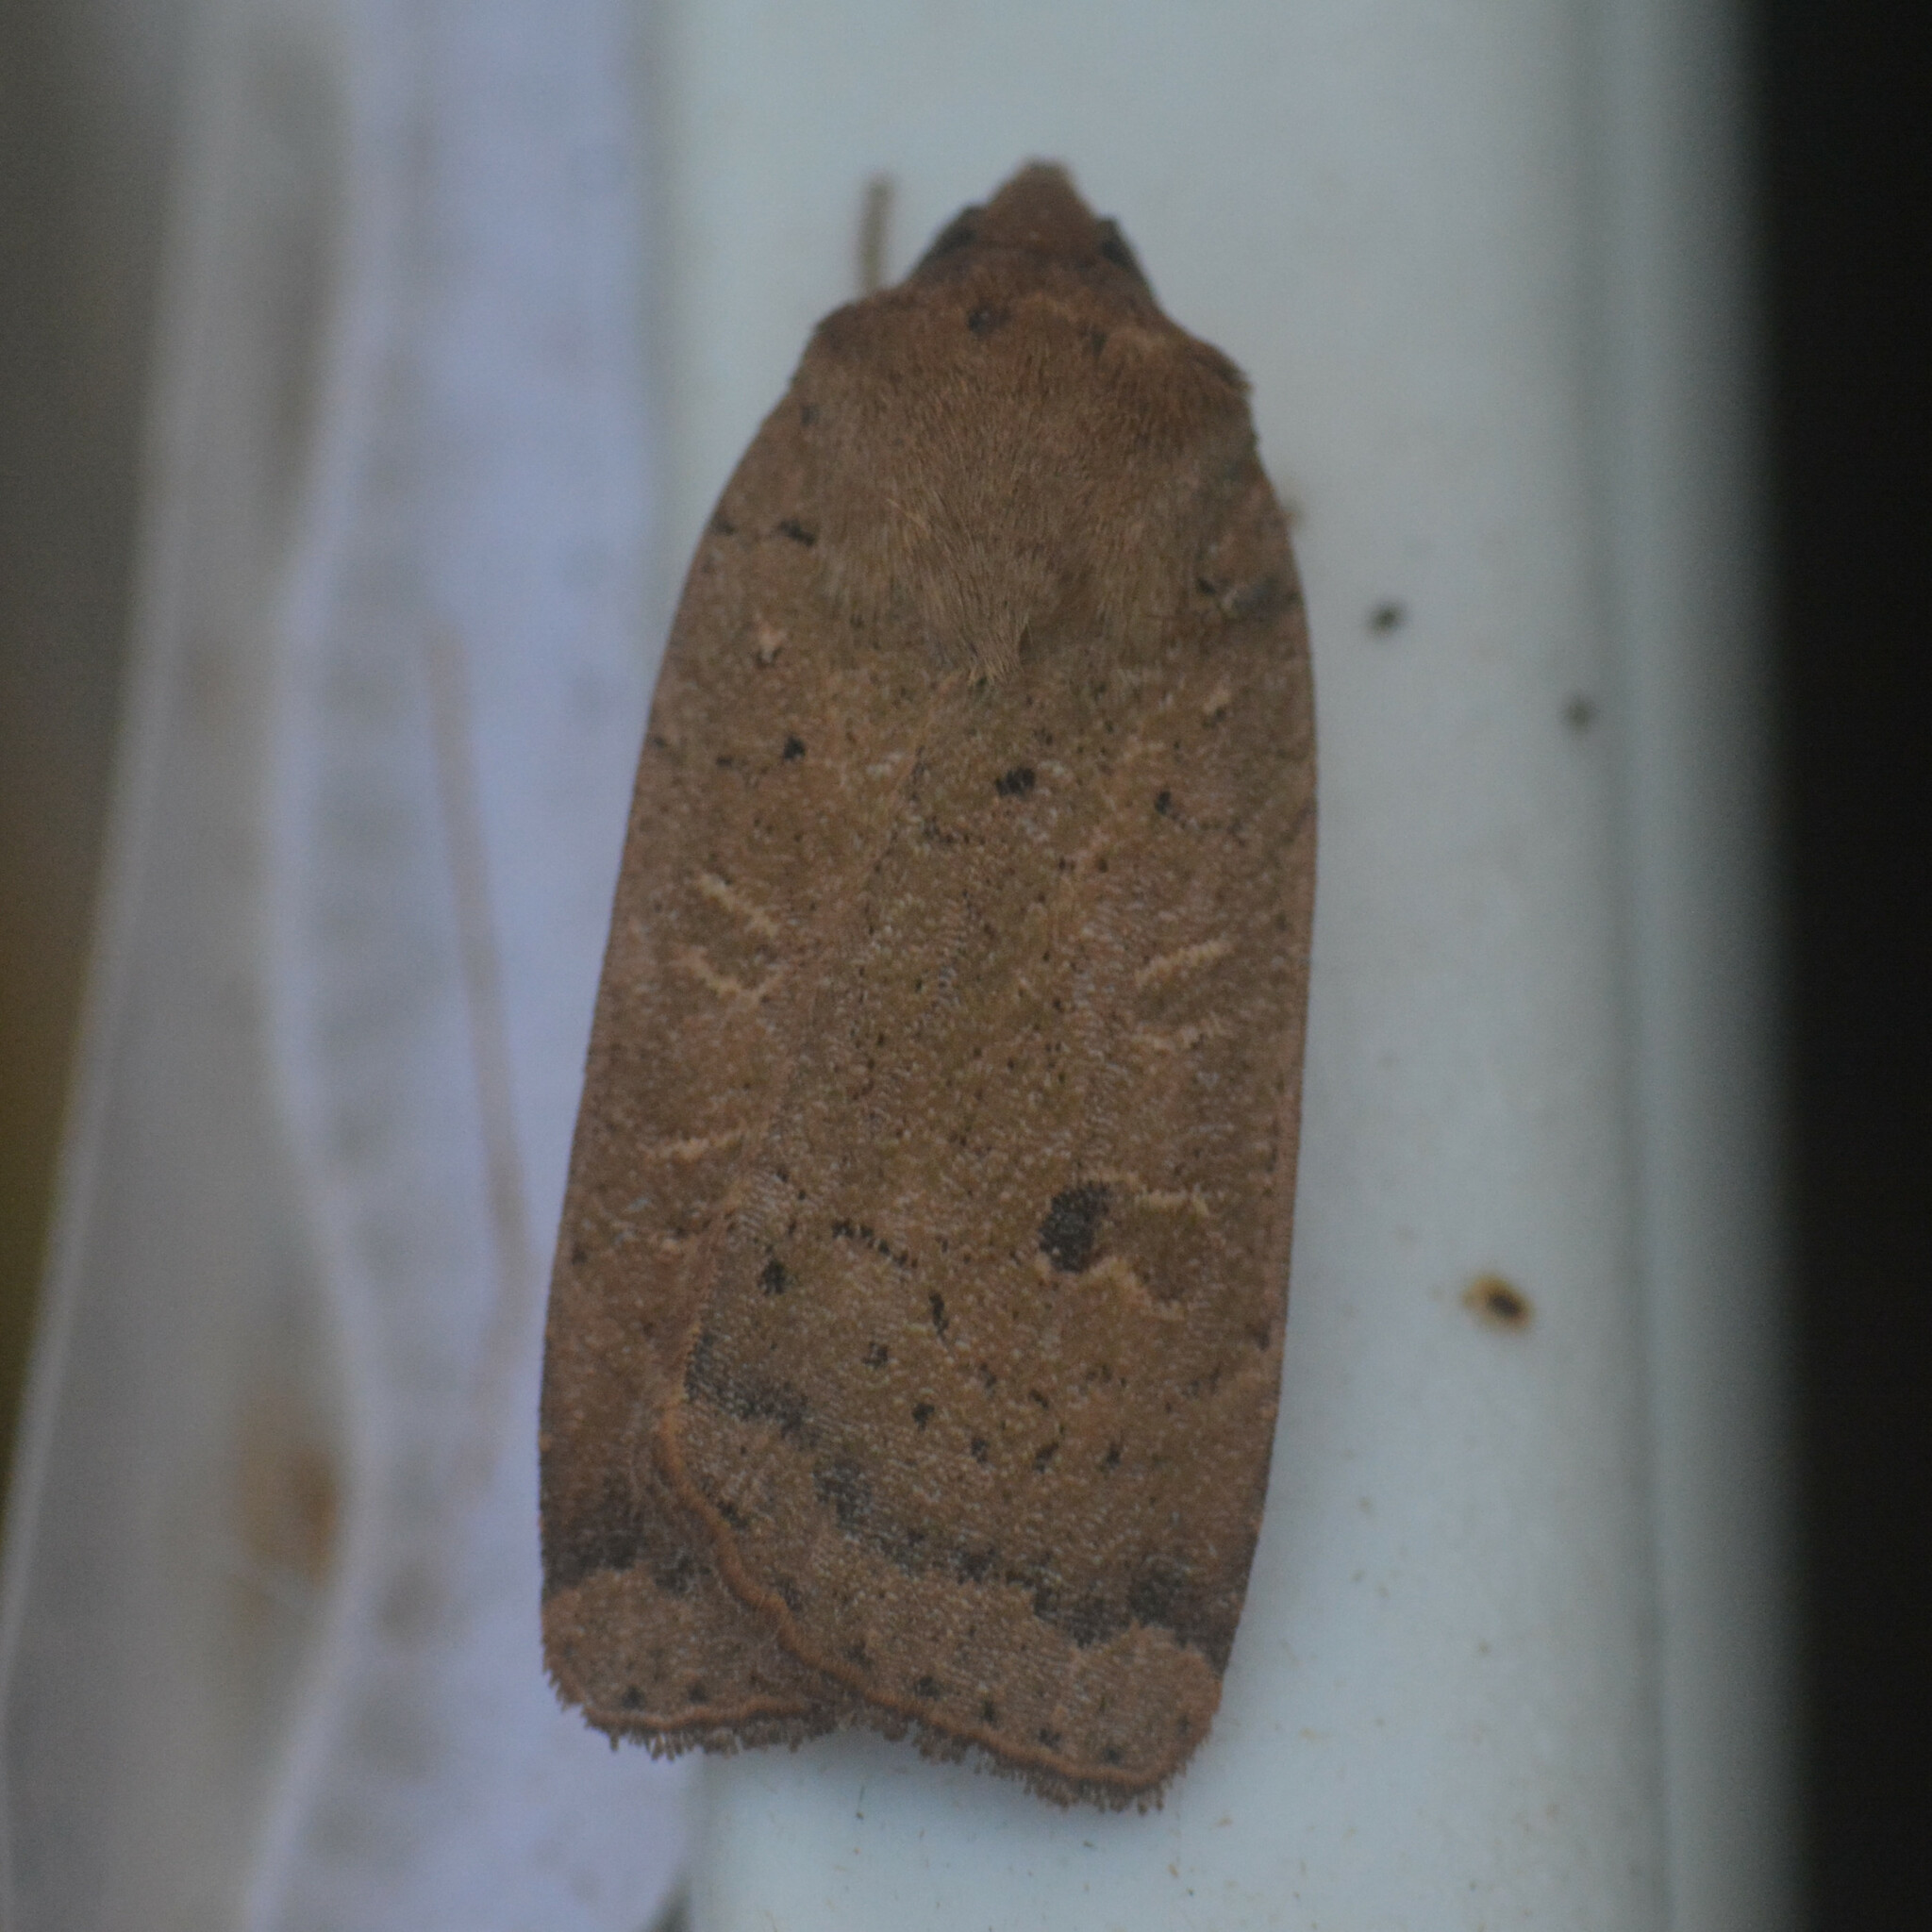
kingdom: Animalia
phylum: Arthropoda
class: Insecta
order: Lepidoptera
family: Noctuidae
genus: Noctua
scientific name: Noctua comes
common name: Lesser yellow underwing
